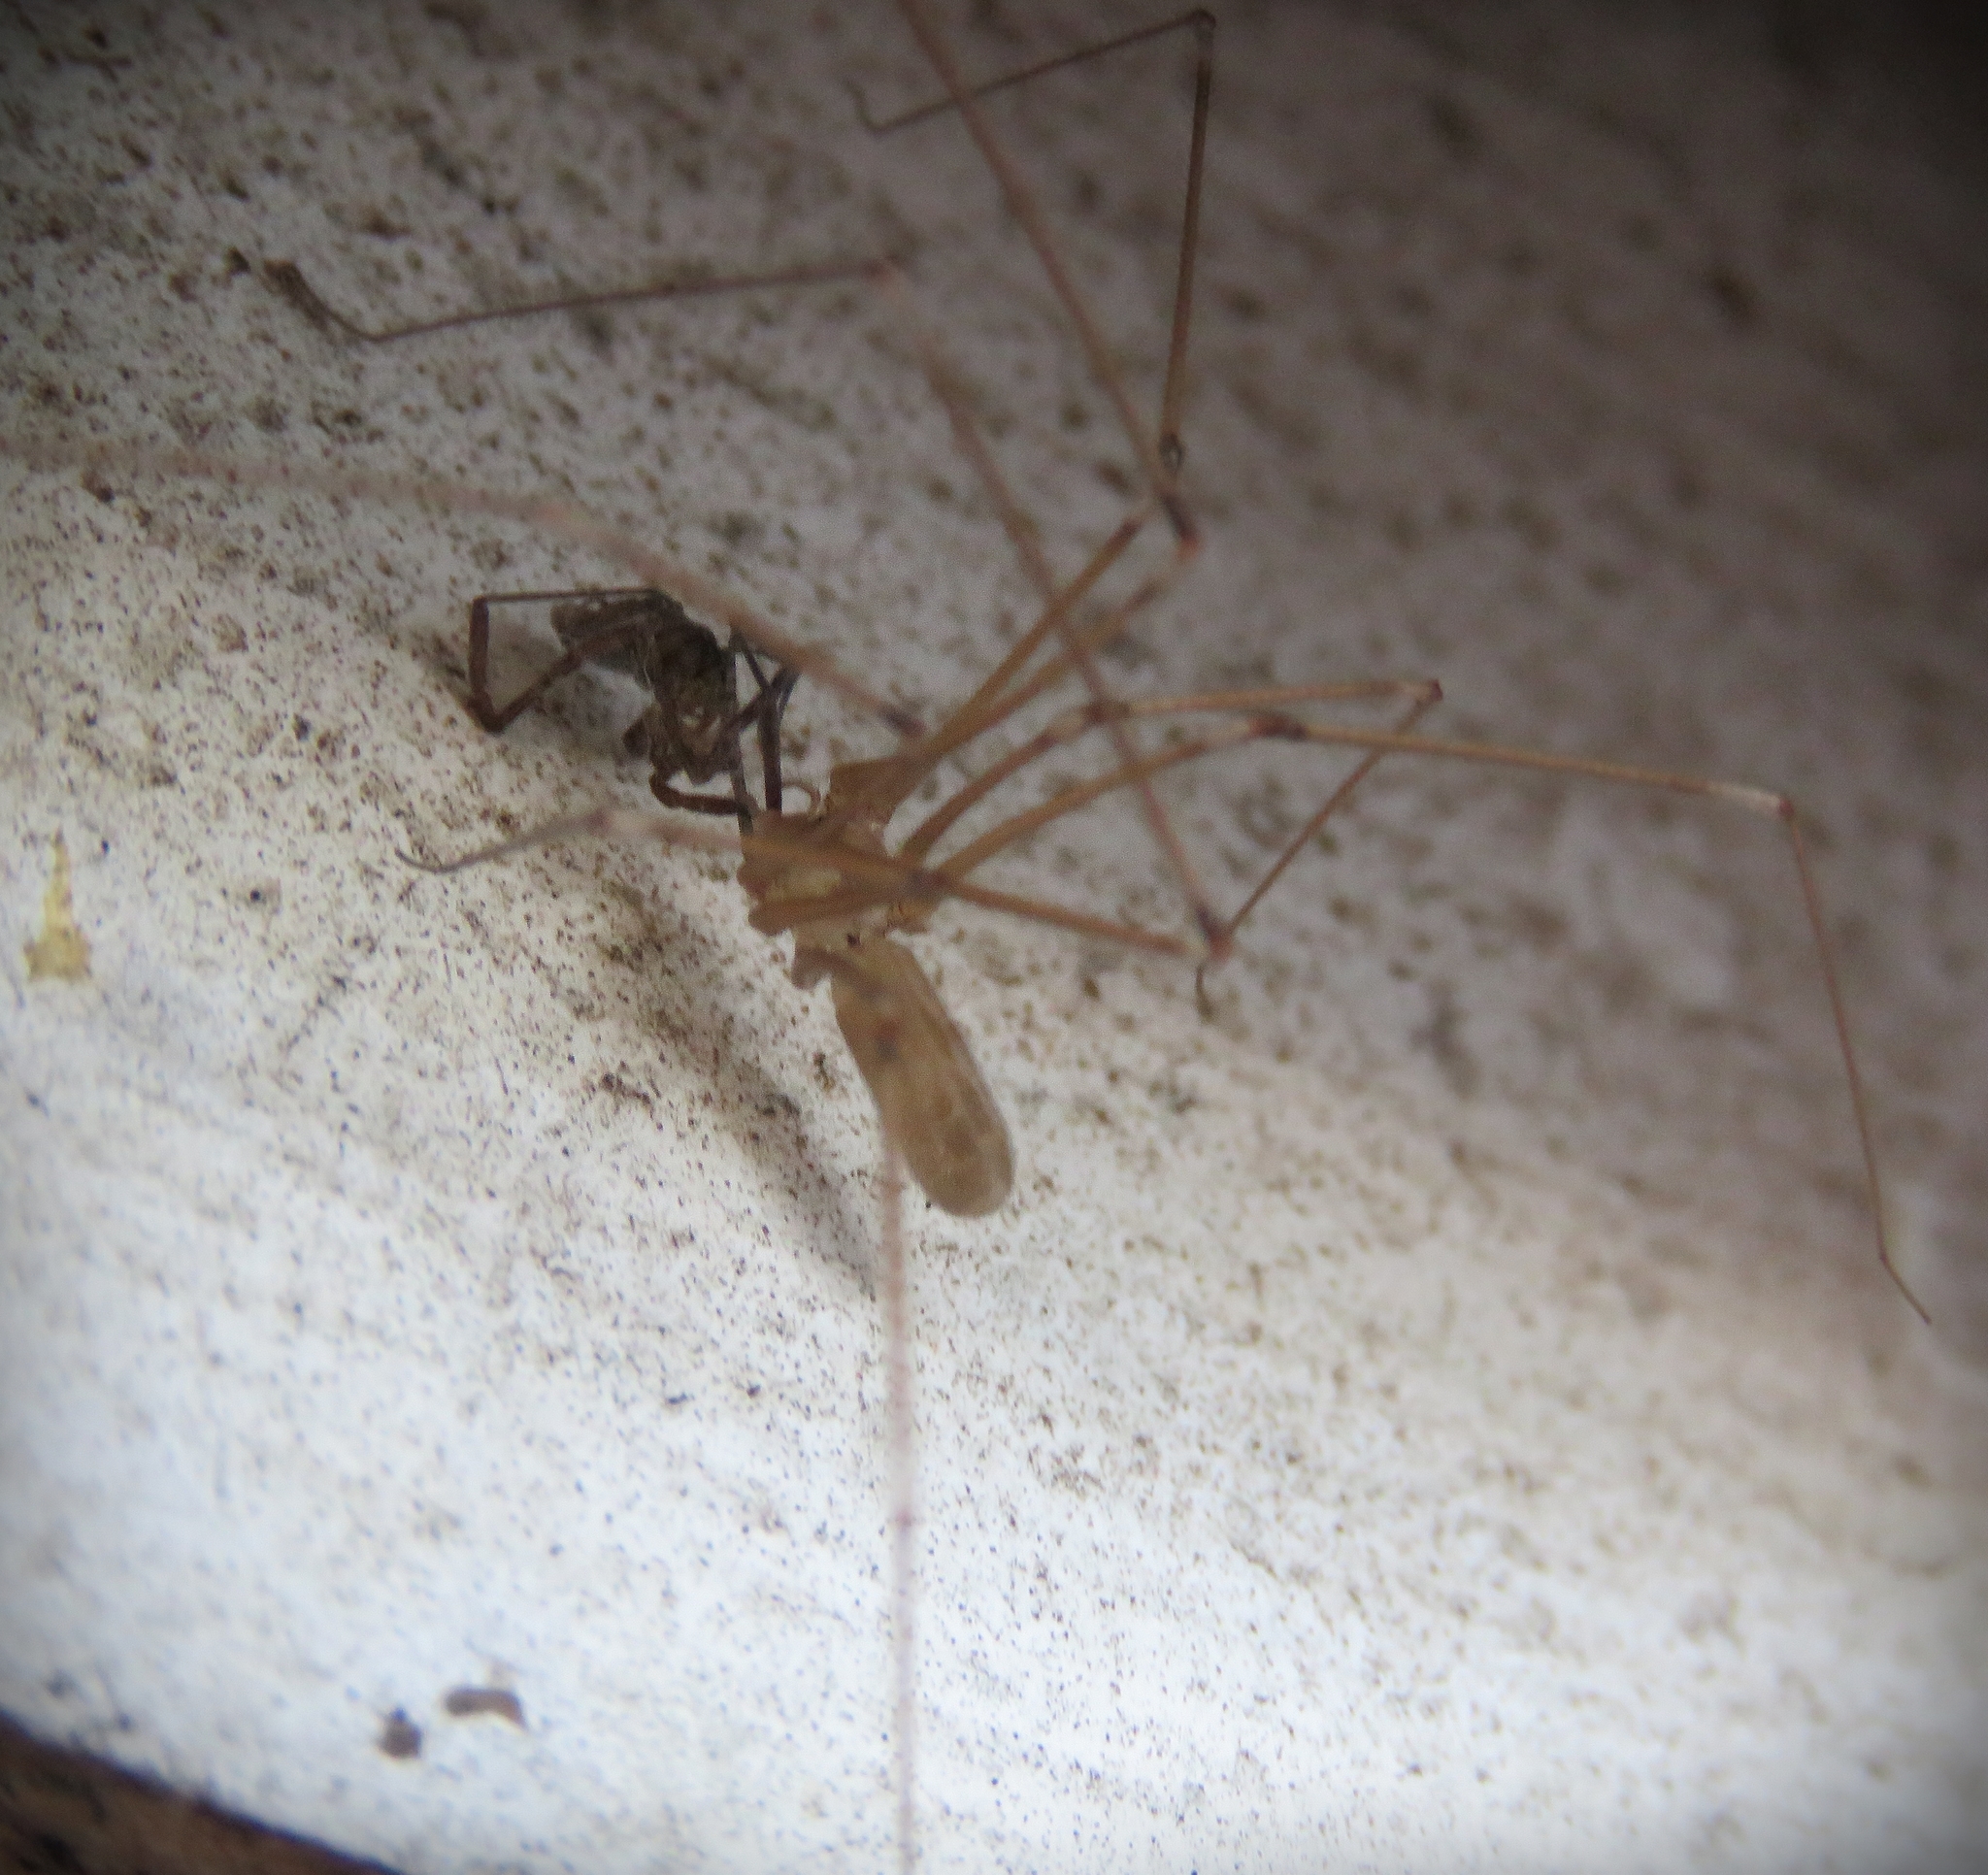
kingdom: Animalia
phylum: Arthropoda
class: Arachnida
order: Araneae
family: Pholcidae
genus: Pholcus
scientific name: Pholcus phalangioides
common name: Longbodied cellar spider
